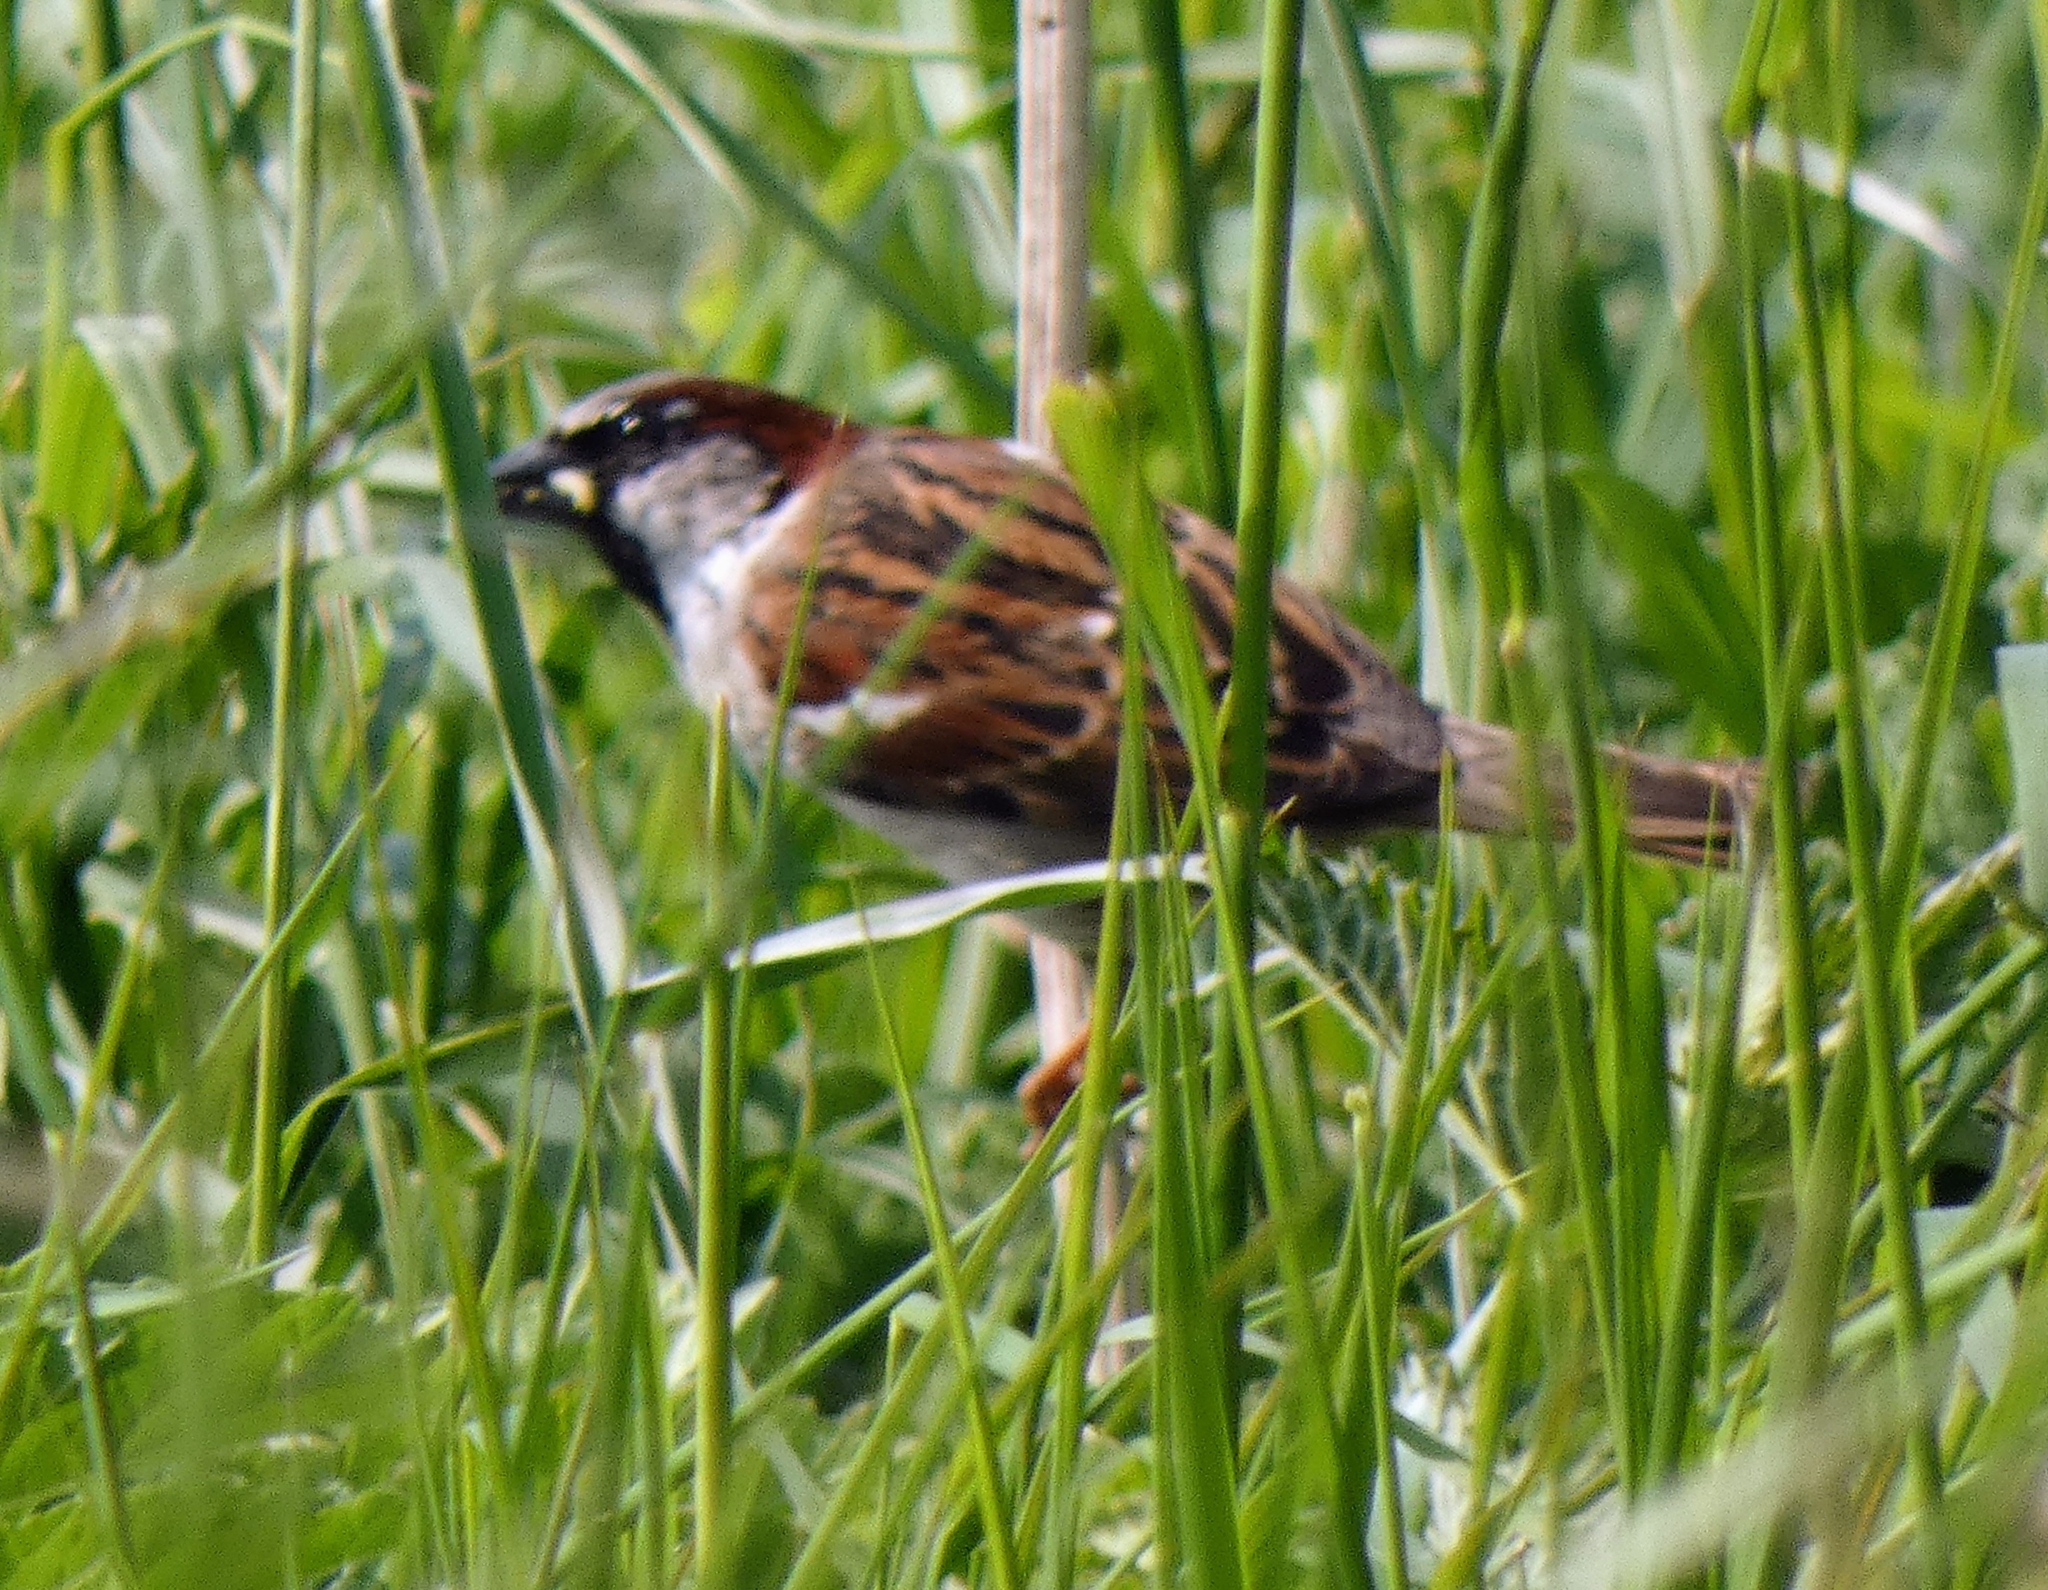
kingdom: Animalia
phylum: Chordata
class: Aves
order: Passeriformes
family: Passeridae
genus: Passer
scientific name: Passer domesticus
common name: House sparrow
